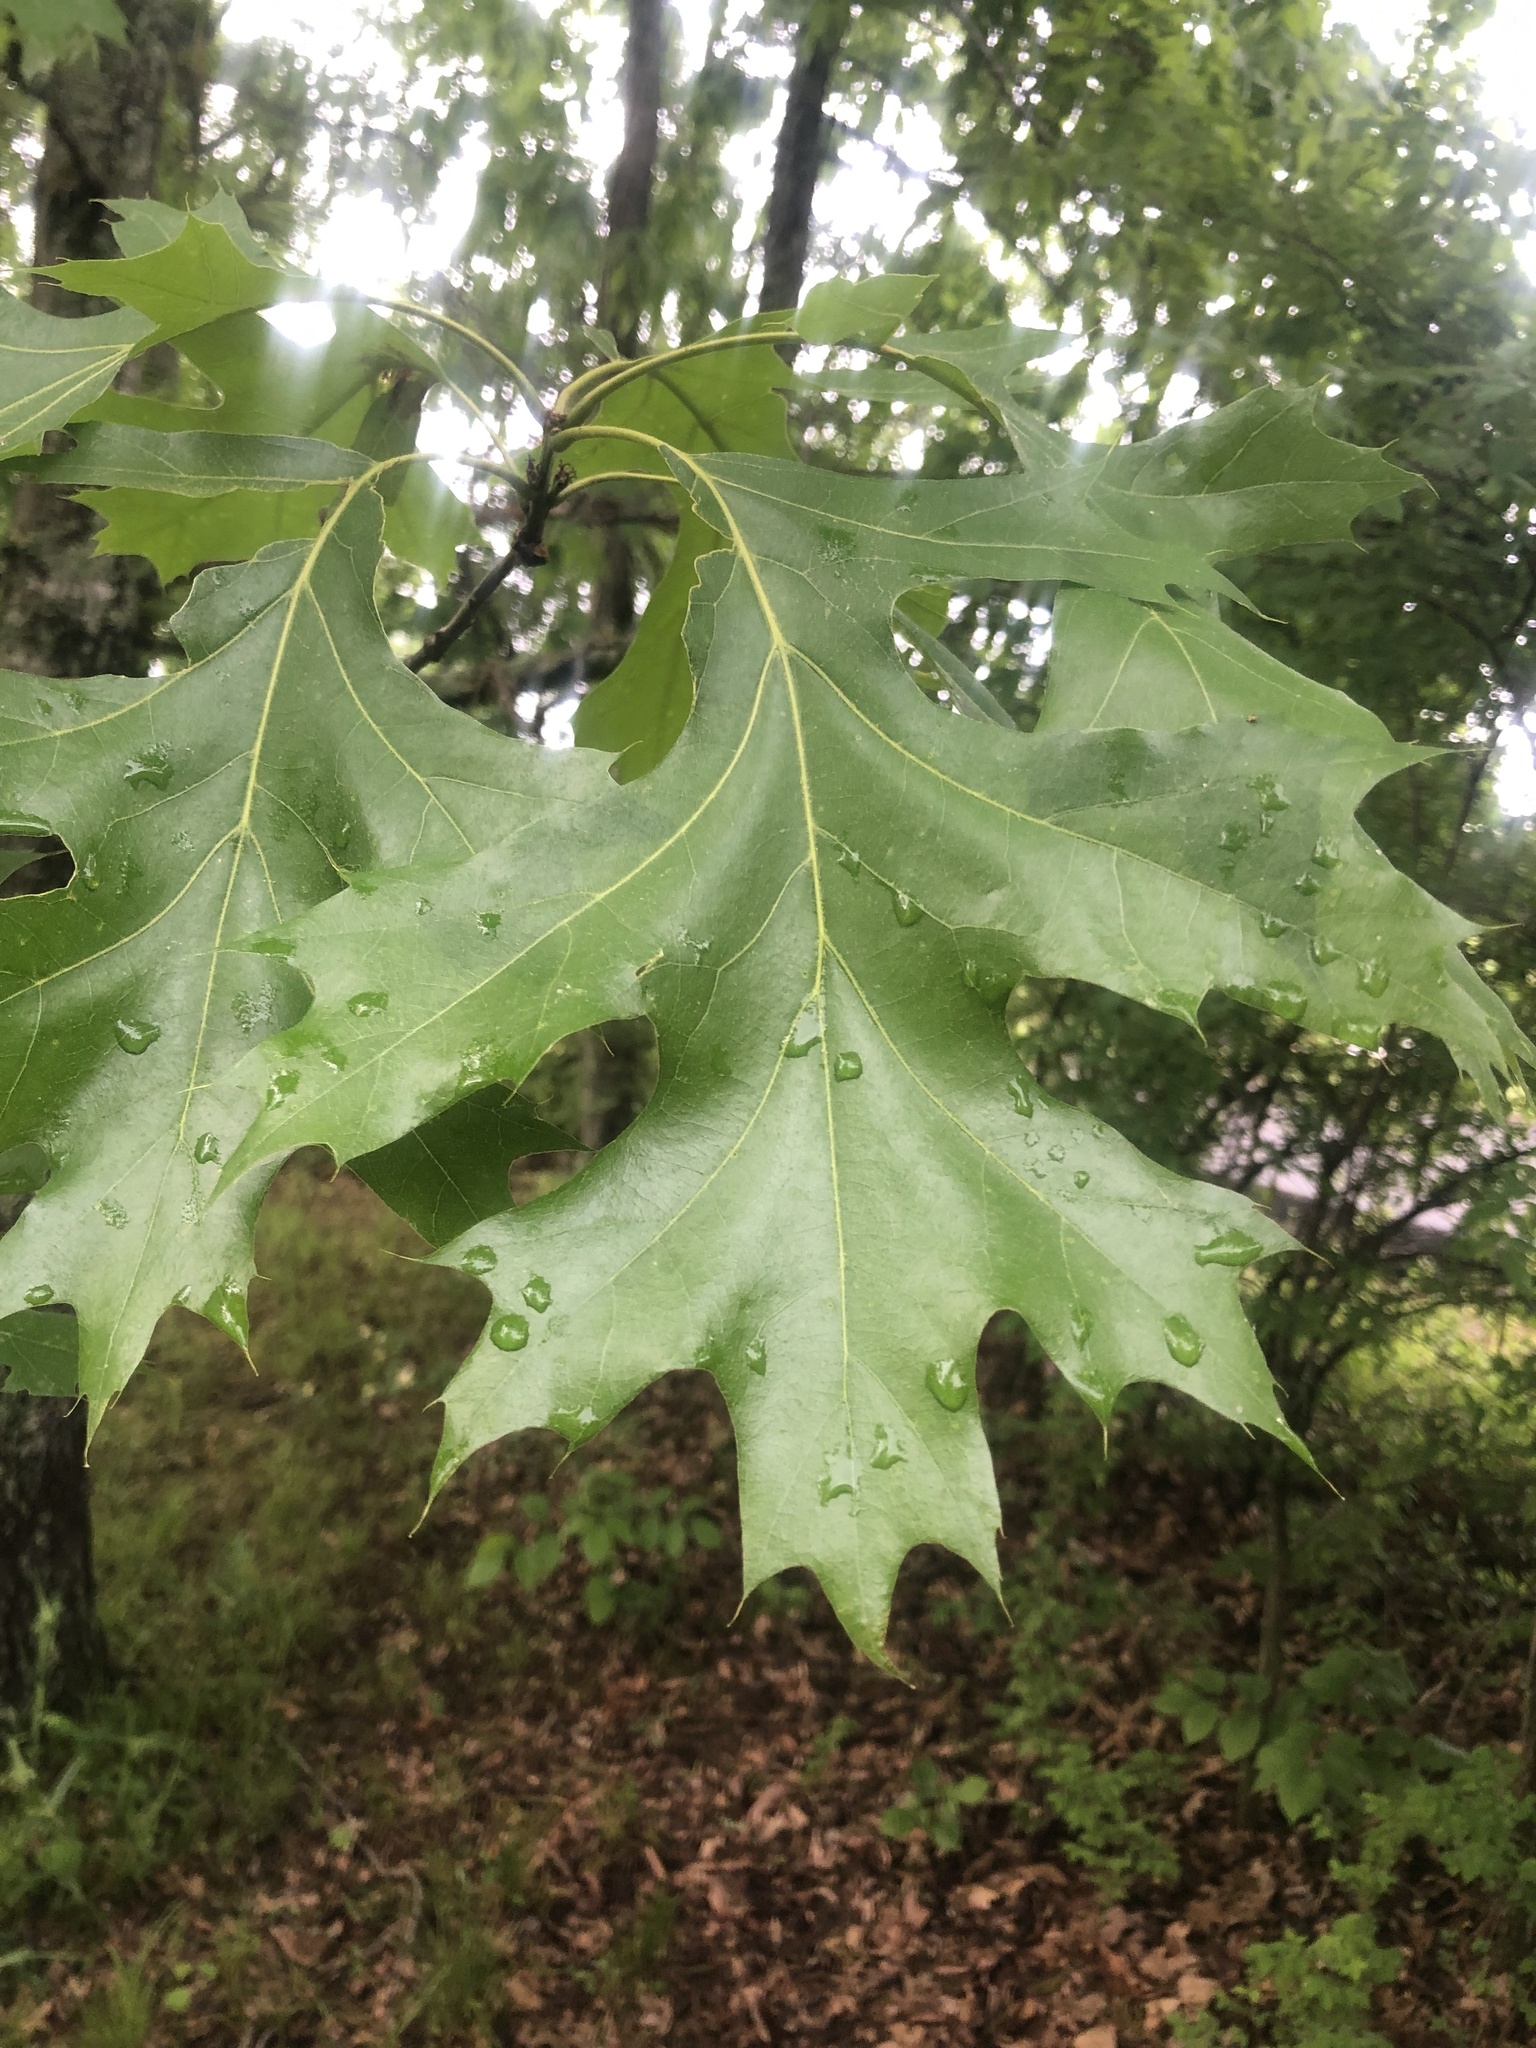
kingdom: Plantae
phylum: Tracheophyta
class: Magnoliopsida
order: Fagales
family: Fagaceae
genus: Quercus
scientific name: Quercus velutina
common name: Black oak
